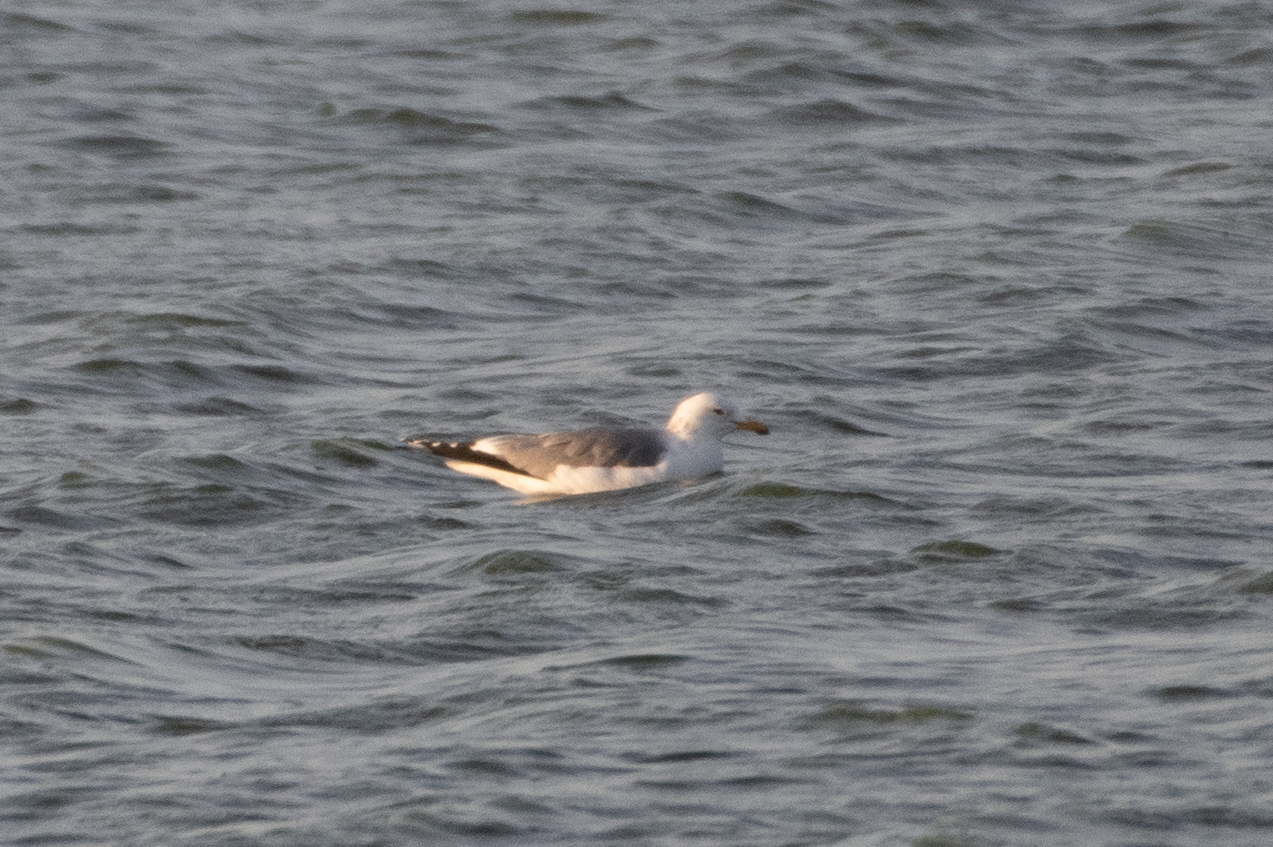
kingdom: Animalia
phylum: Chordata
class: Aves
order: Charadriiformes
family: Laridae
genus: Larus
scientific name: Larus californicus
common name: California gull
